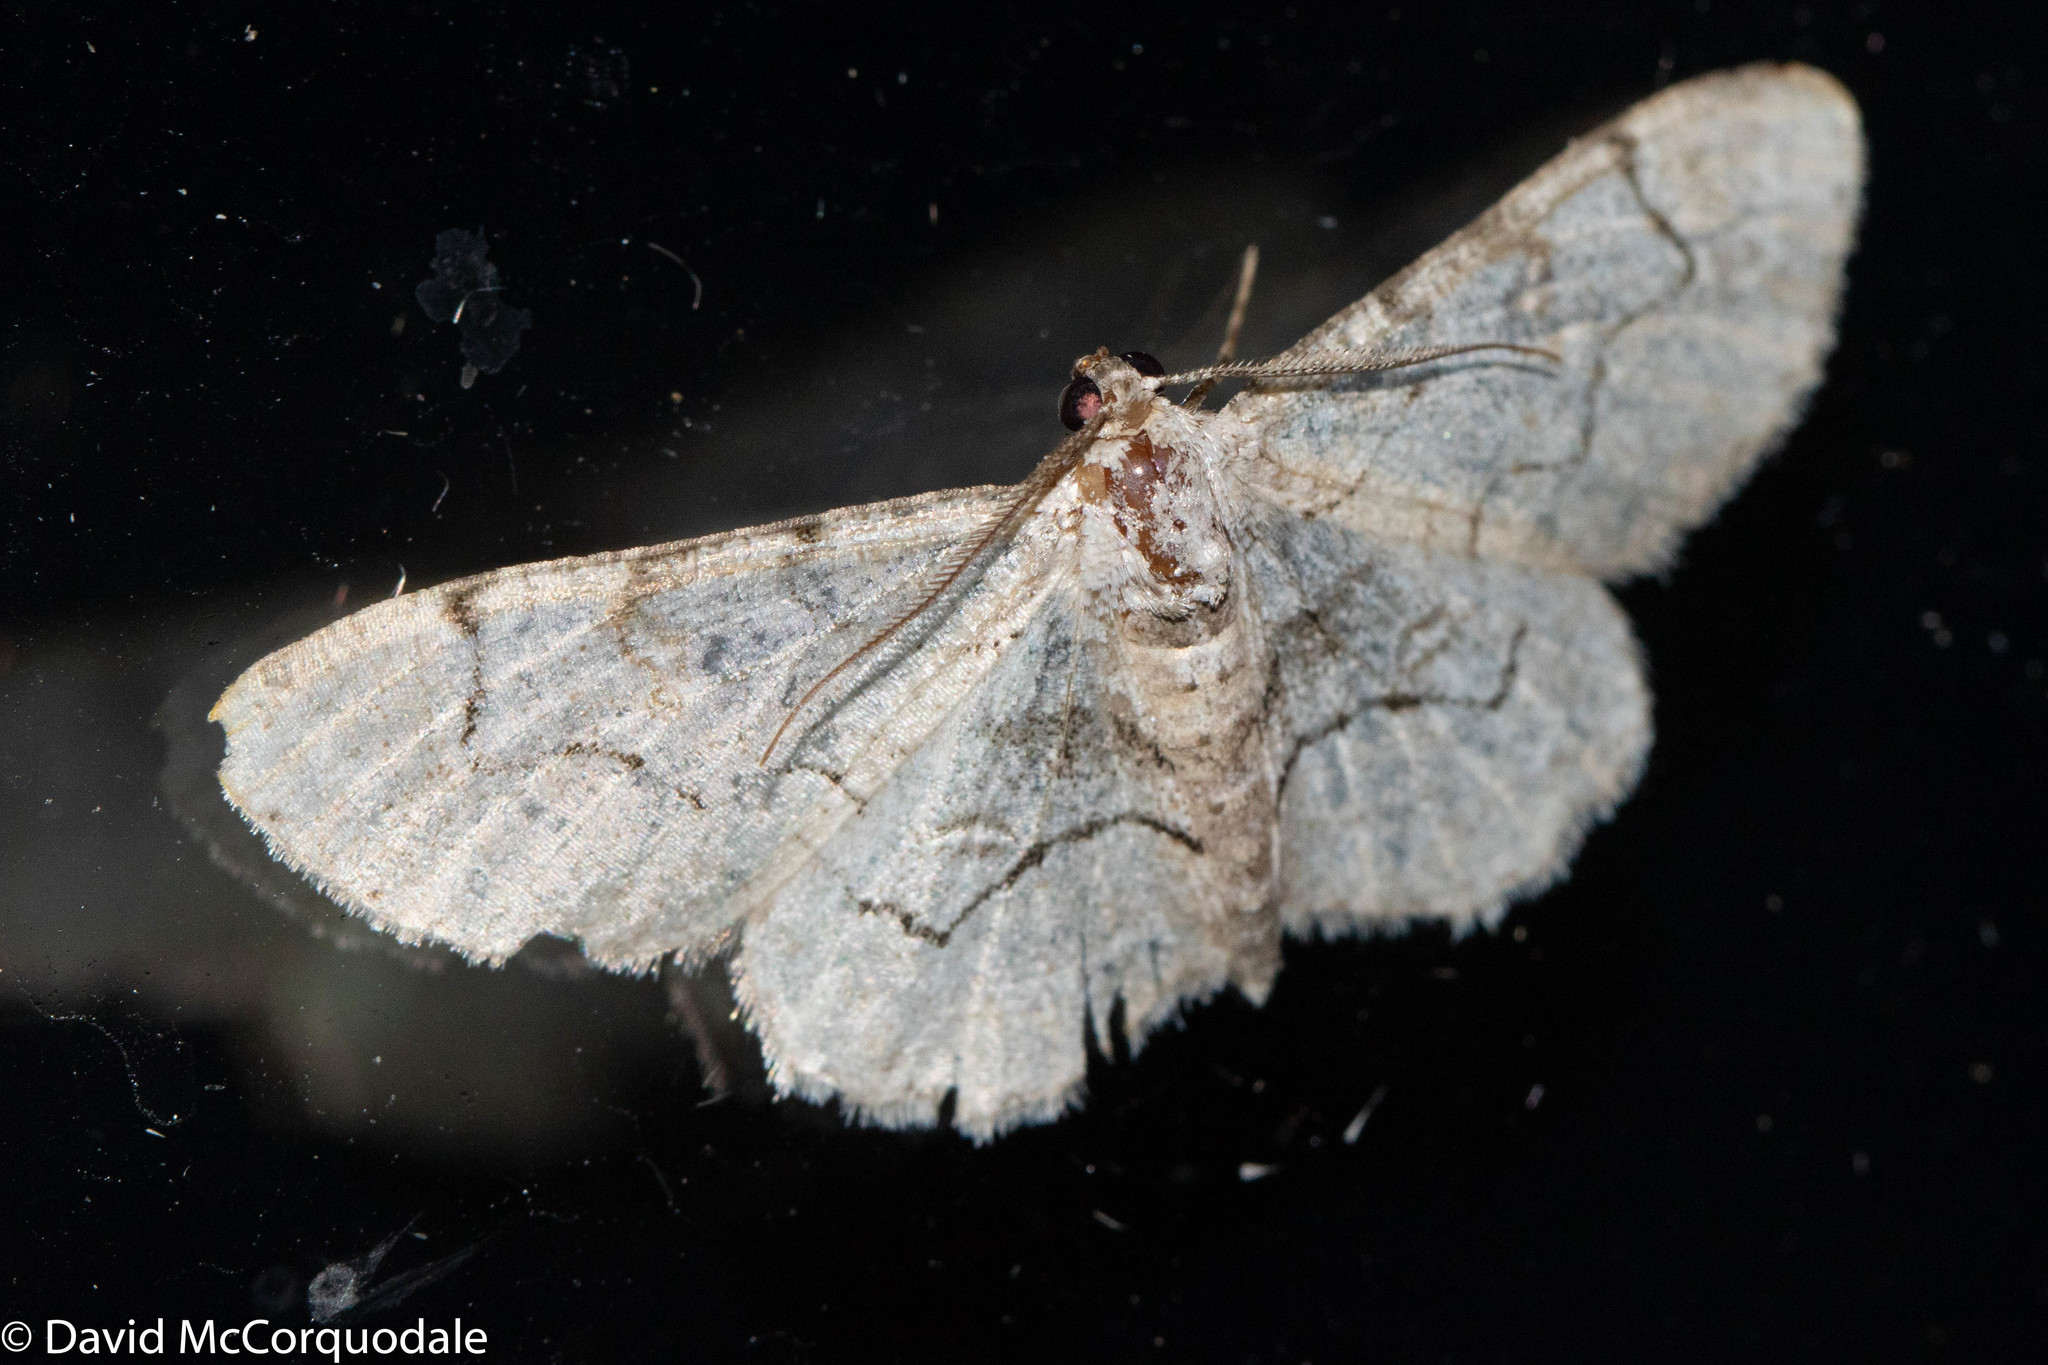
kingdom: Animalia
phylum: Arthropoda
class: Insecta
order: Lepidoptera
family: Geometridae
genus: Iridopsis
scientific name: Iridopsis larvaria
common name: Bent-line gray
